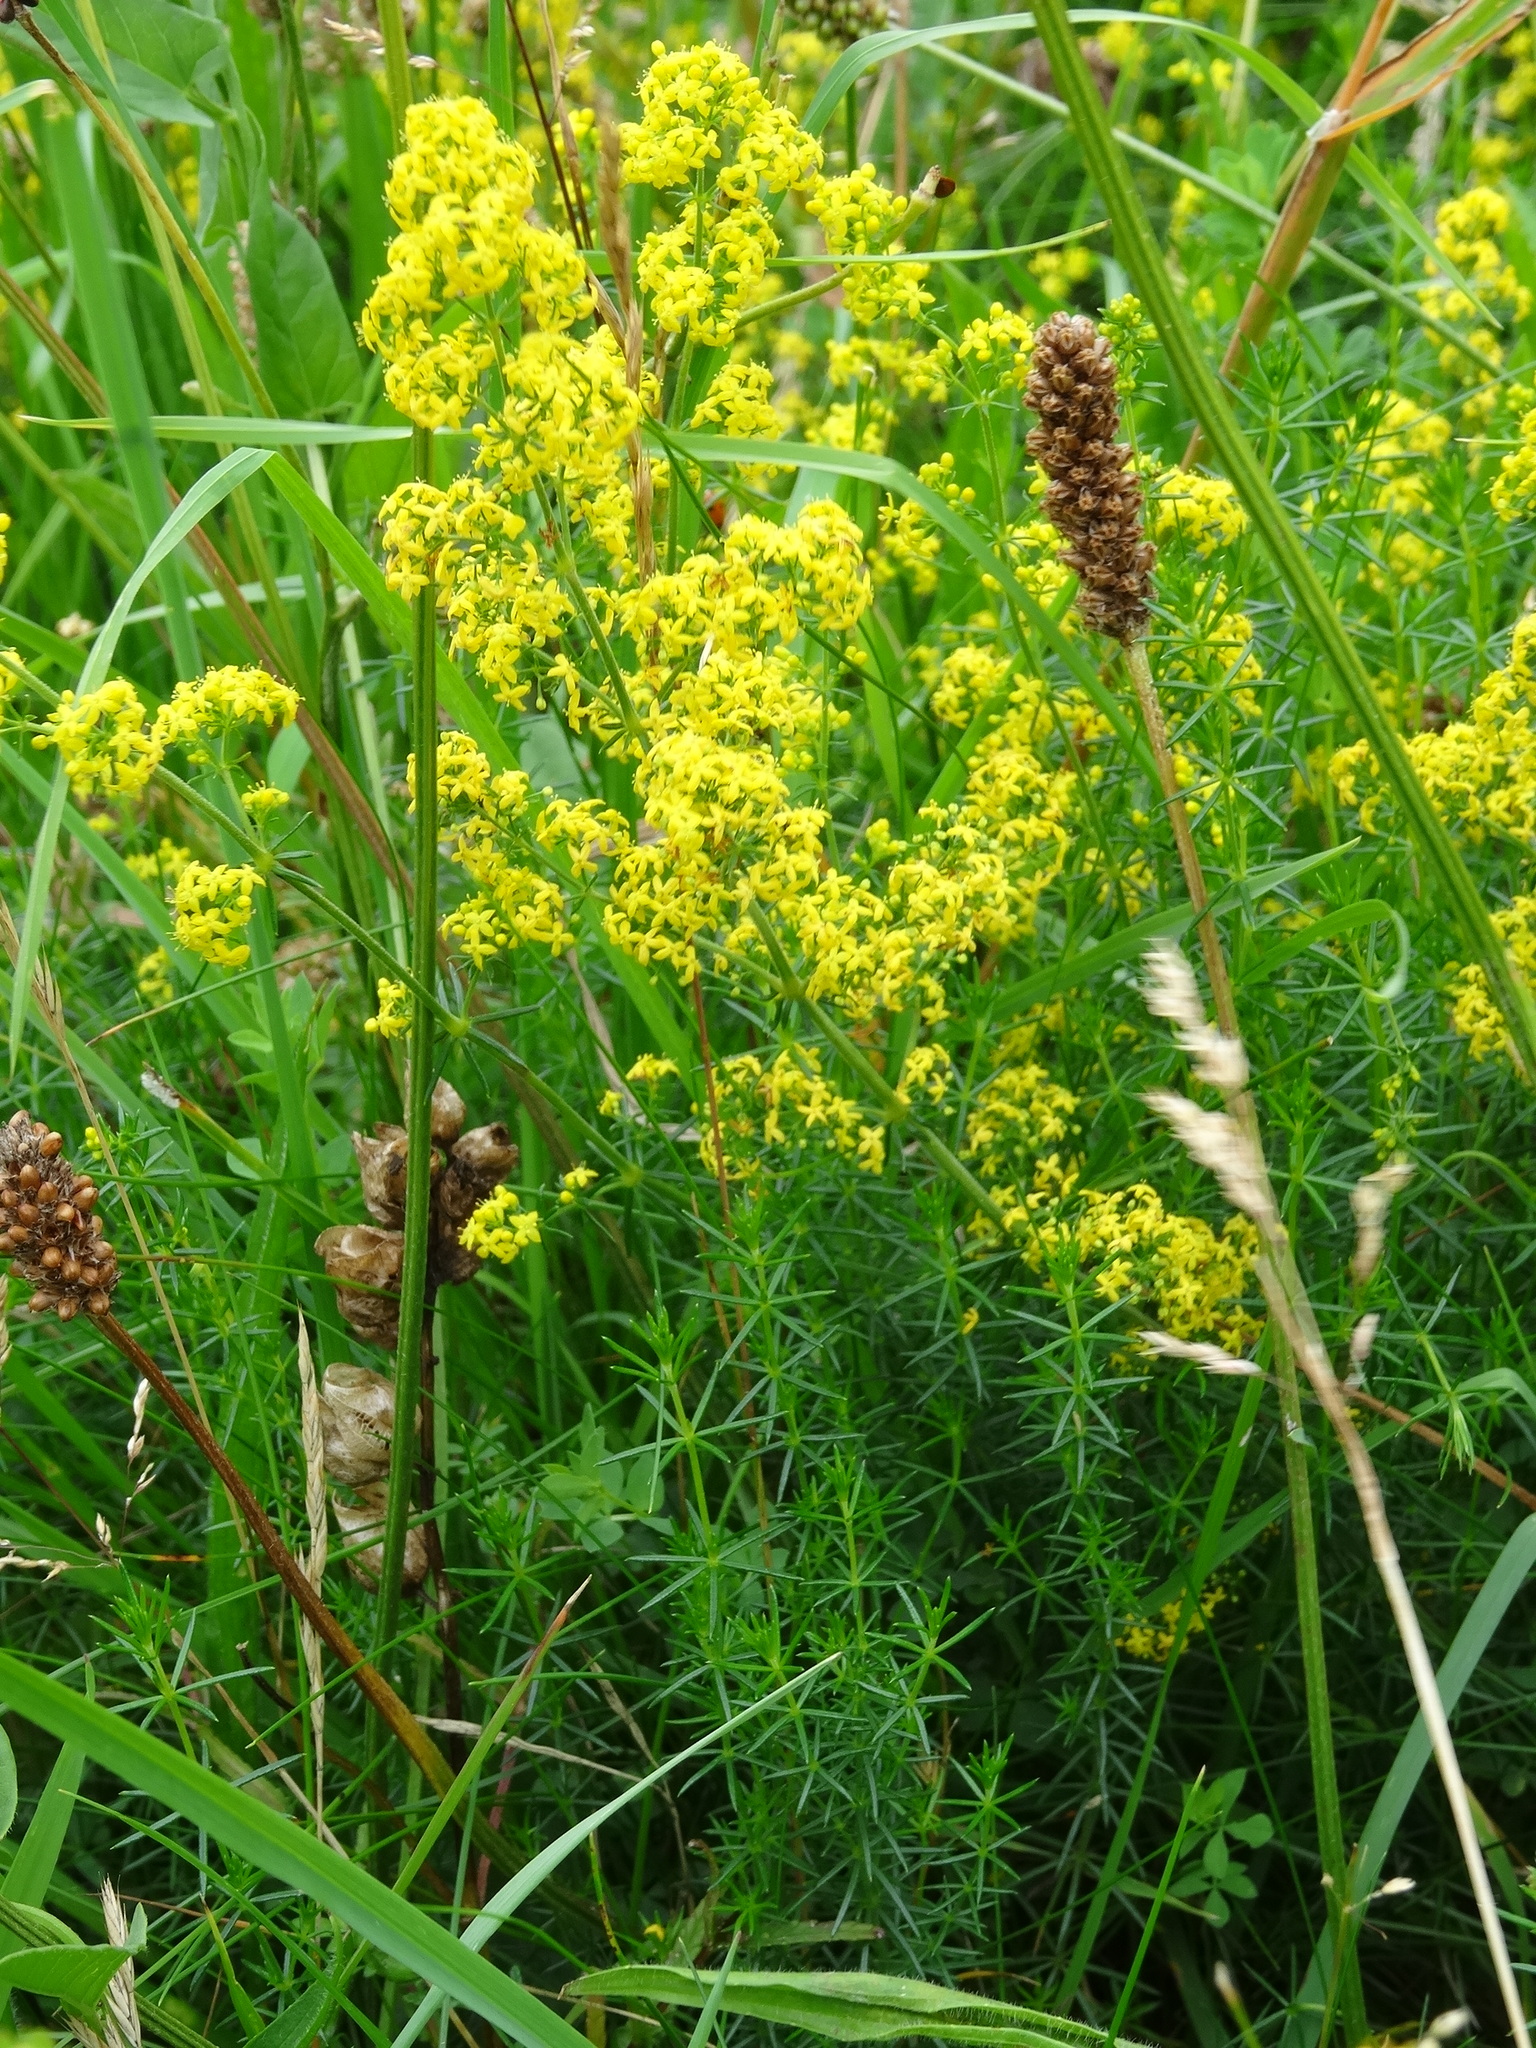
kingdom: Plantae
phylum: Tracheophyta
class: Magnoliopsida
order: Gentianales
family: Rubiaceae
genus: Galium
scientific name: Galium verum
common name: Lady's bedstraw
